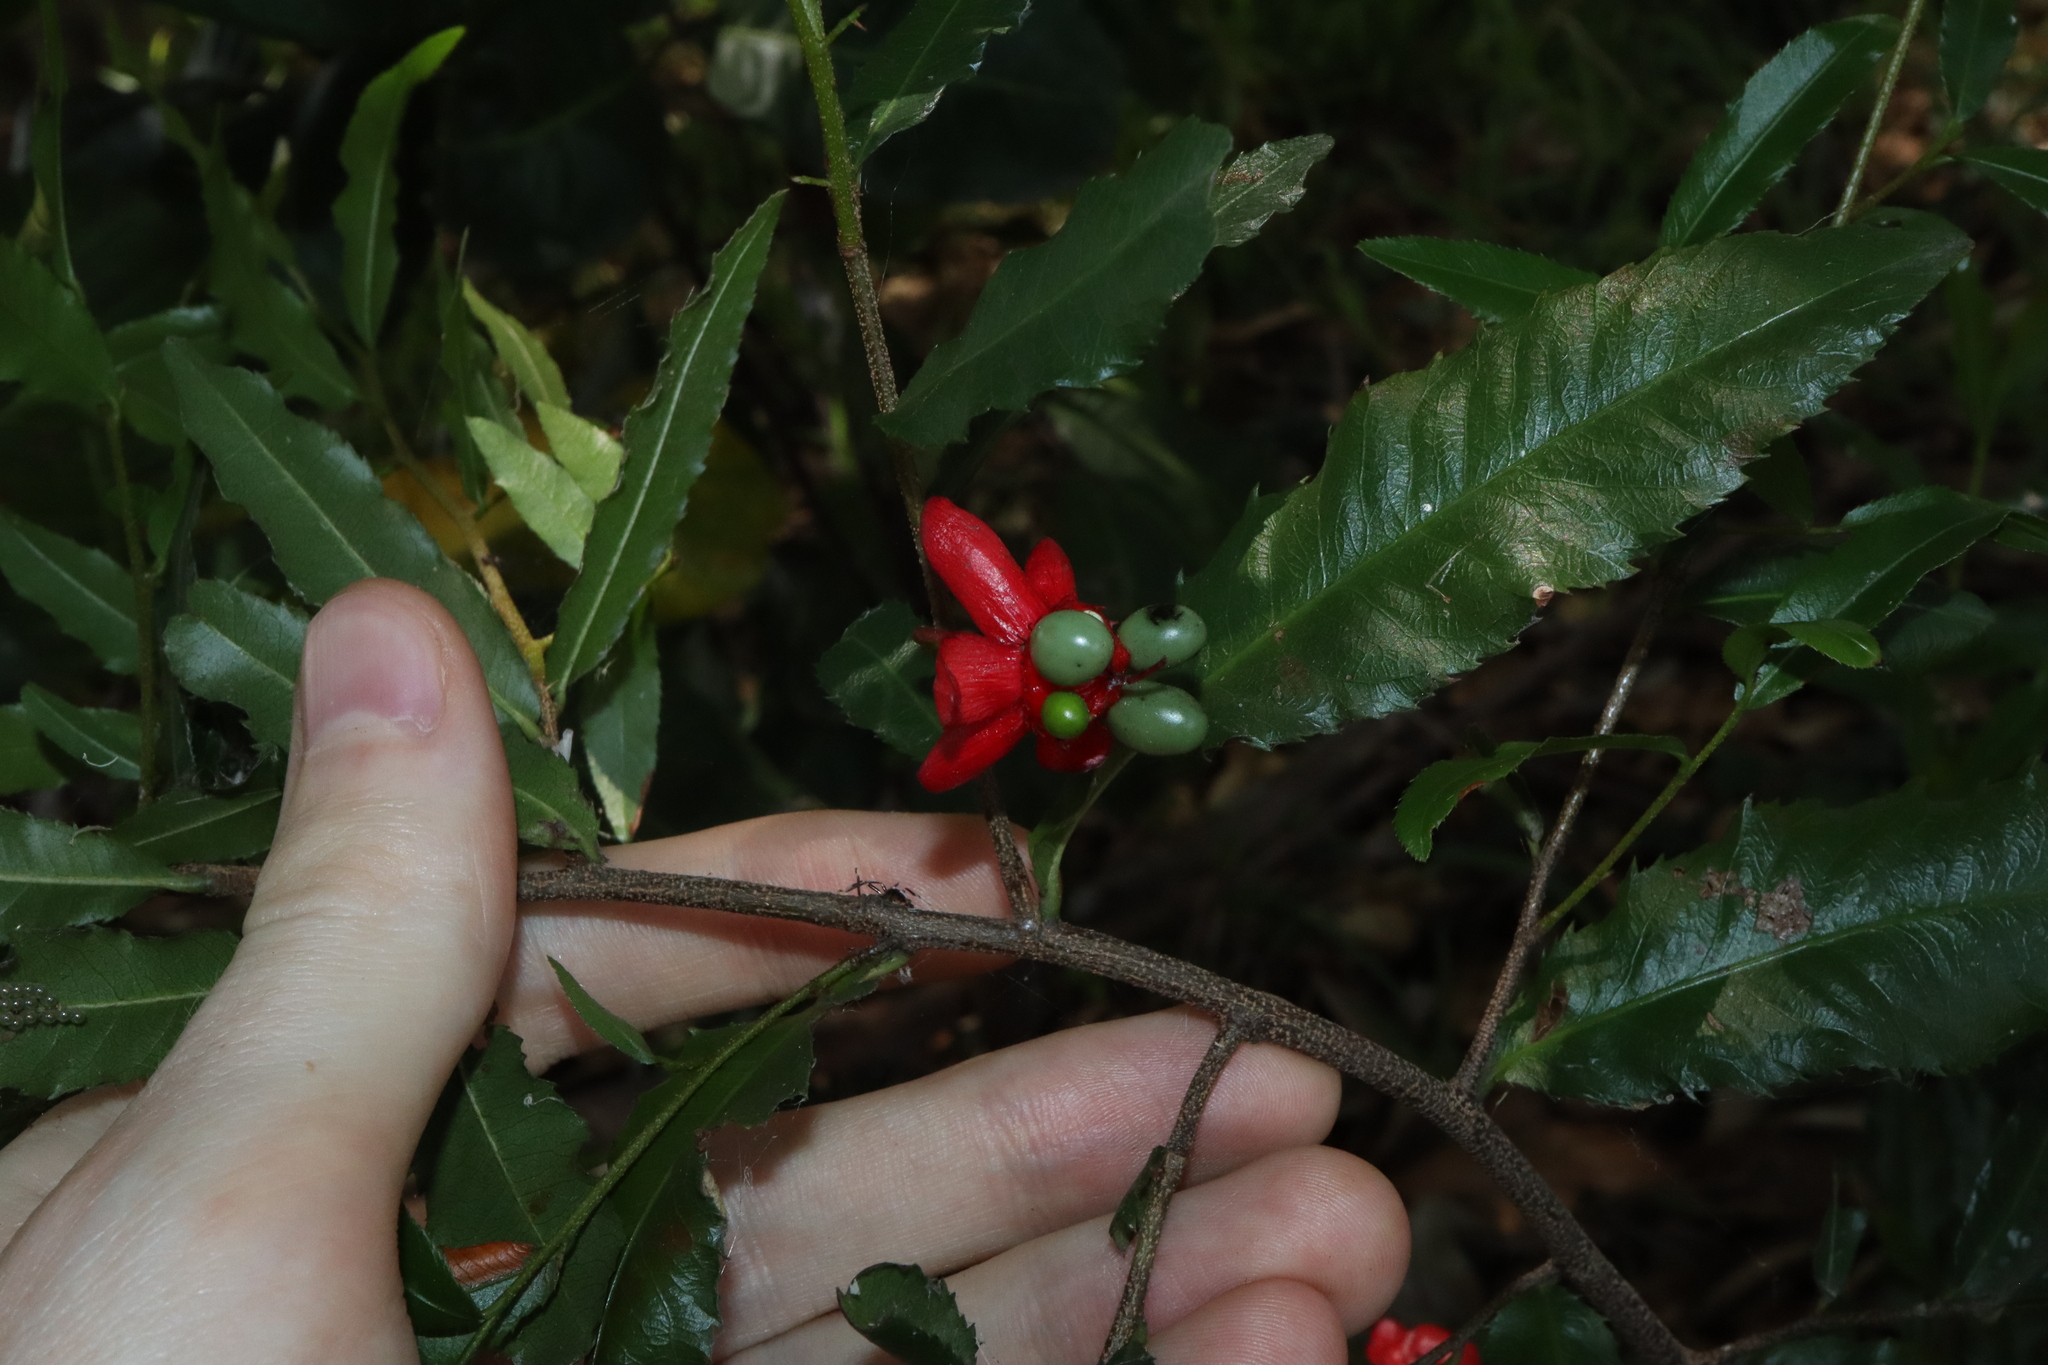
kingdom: Plantae
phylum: Tracheophyta
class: Magnoliopsida
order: Malpighiales
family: Ochnaceae
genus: Ochna
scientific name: Ochna serrulata
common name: Mickey mouse plant
